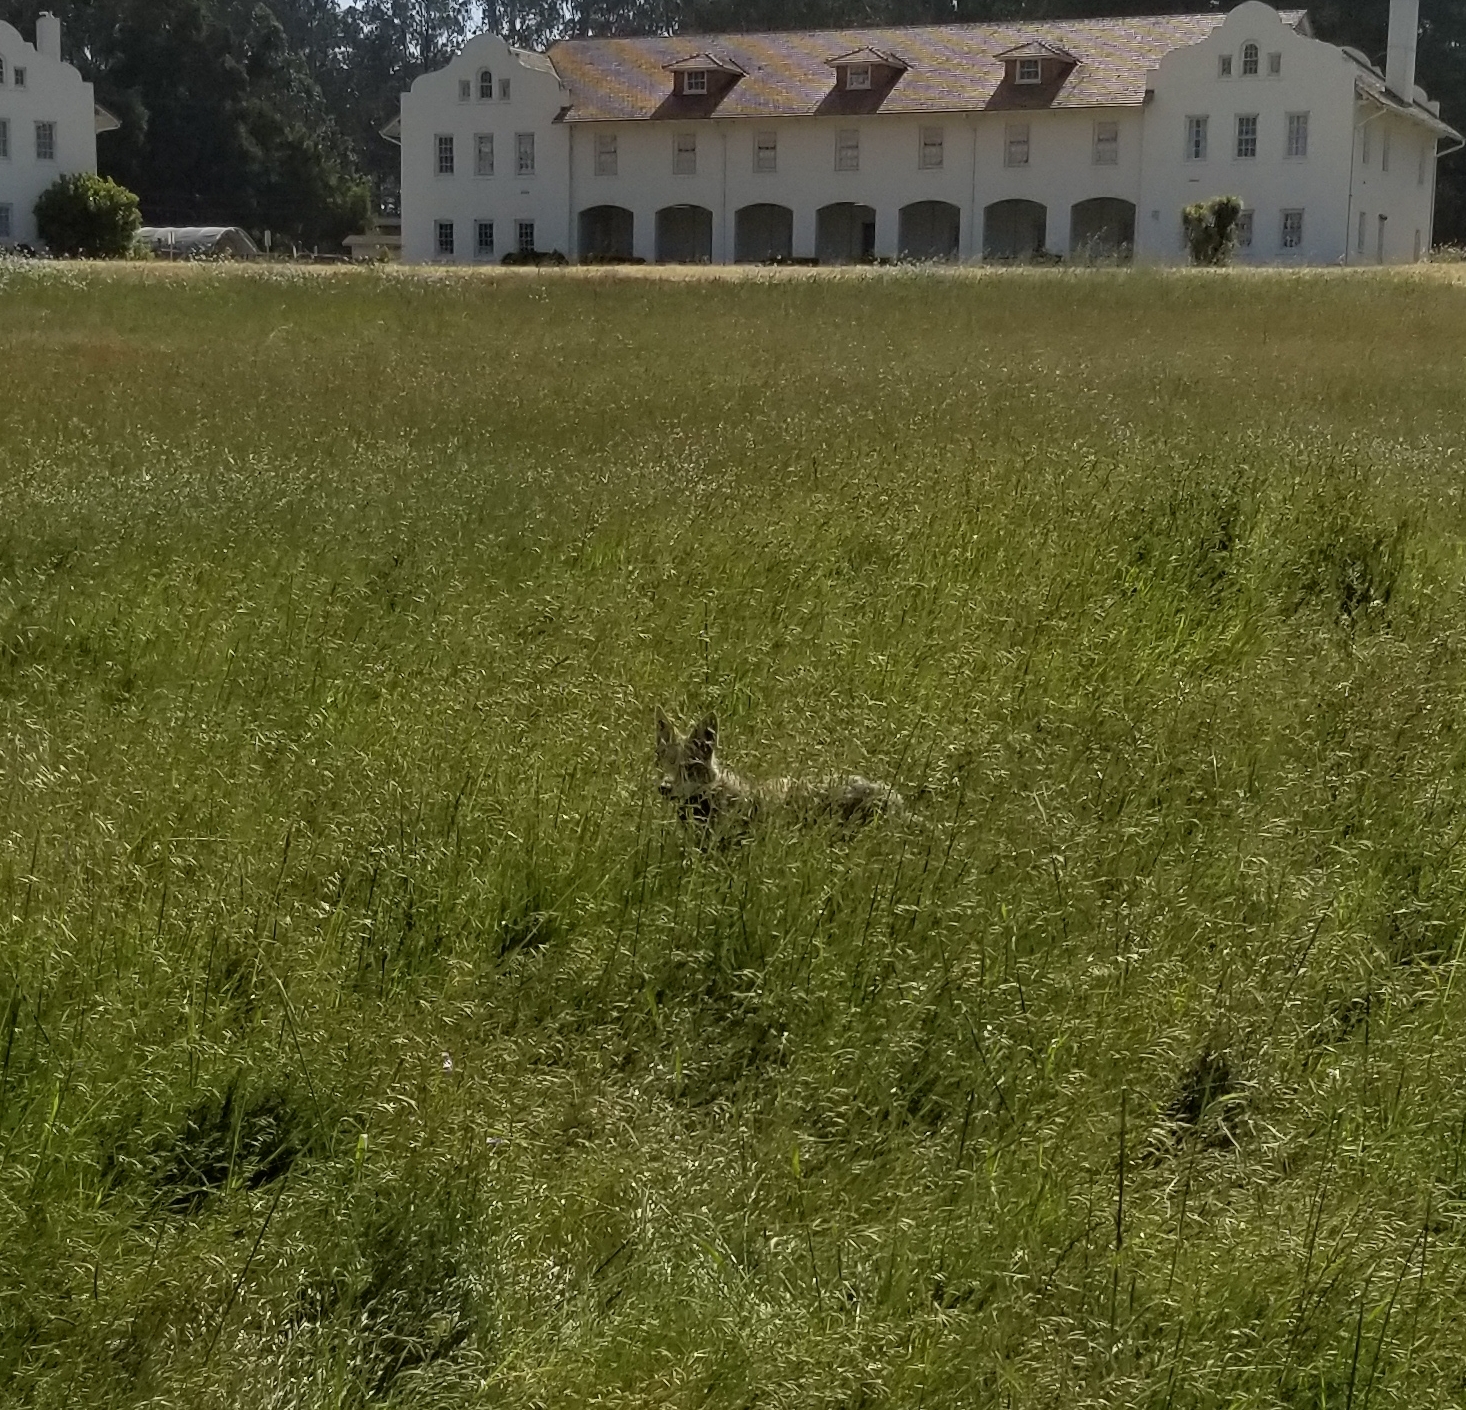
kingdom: Animalia
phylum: Chordata
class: Mammalia
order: Carnivora
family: Canidae
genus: Canis
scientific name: Canis latrans
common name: Coyote
